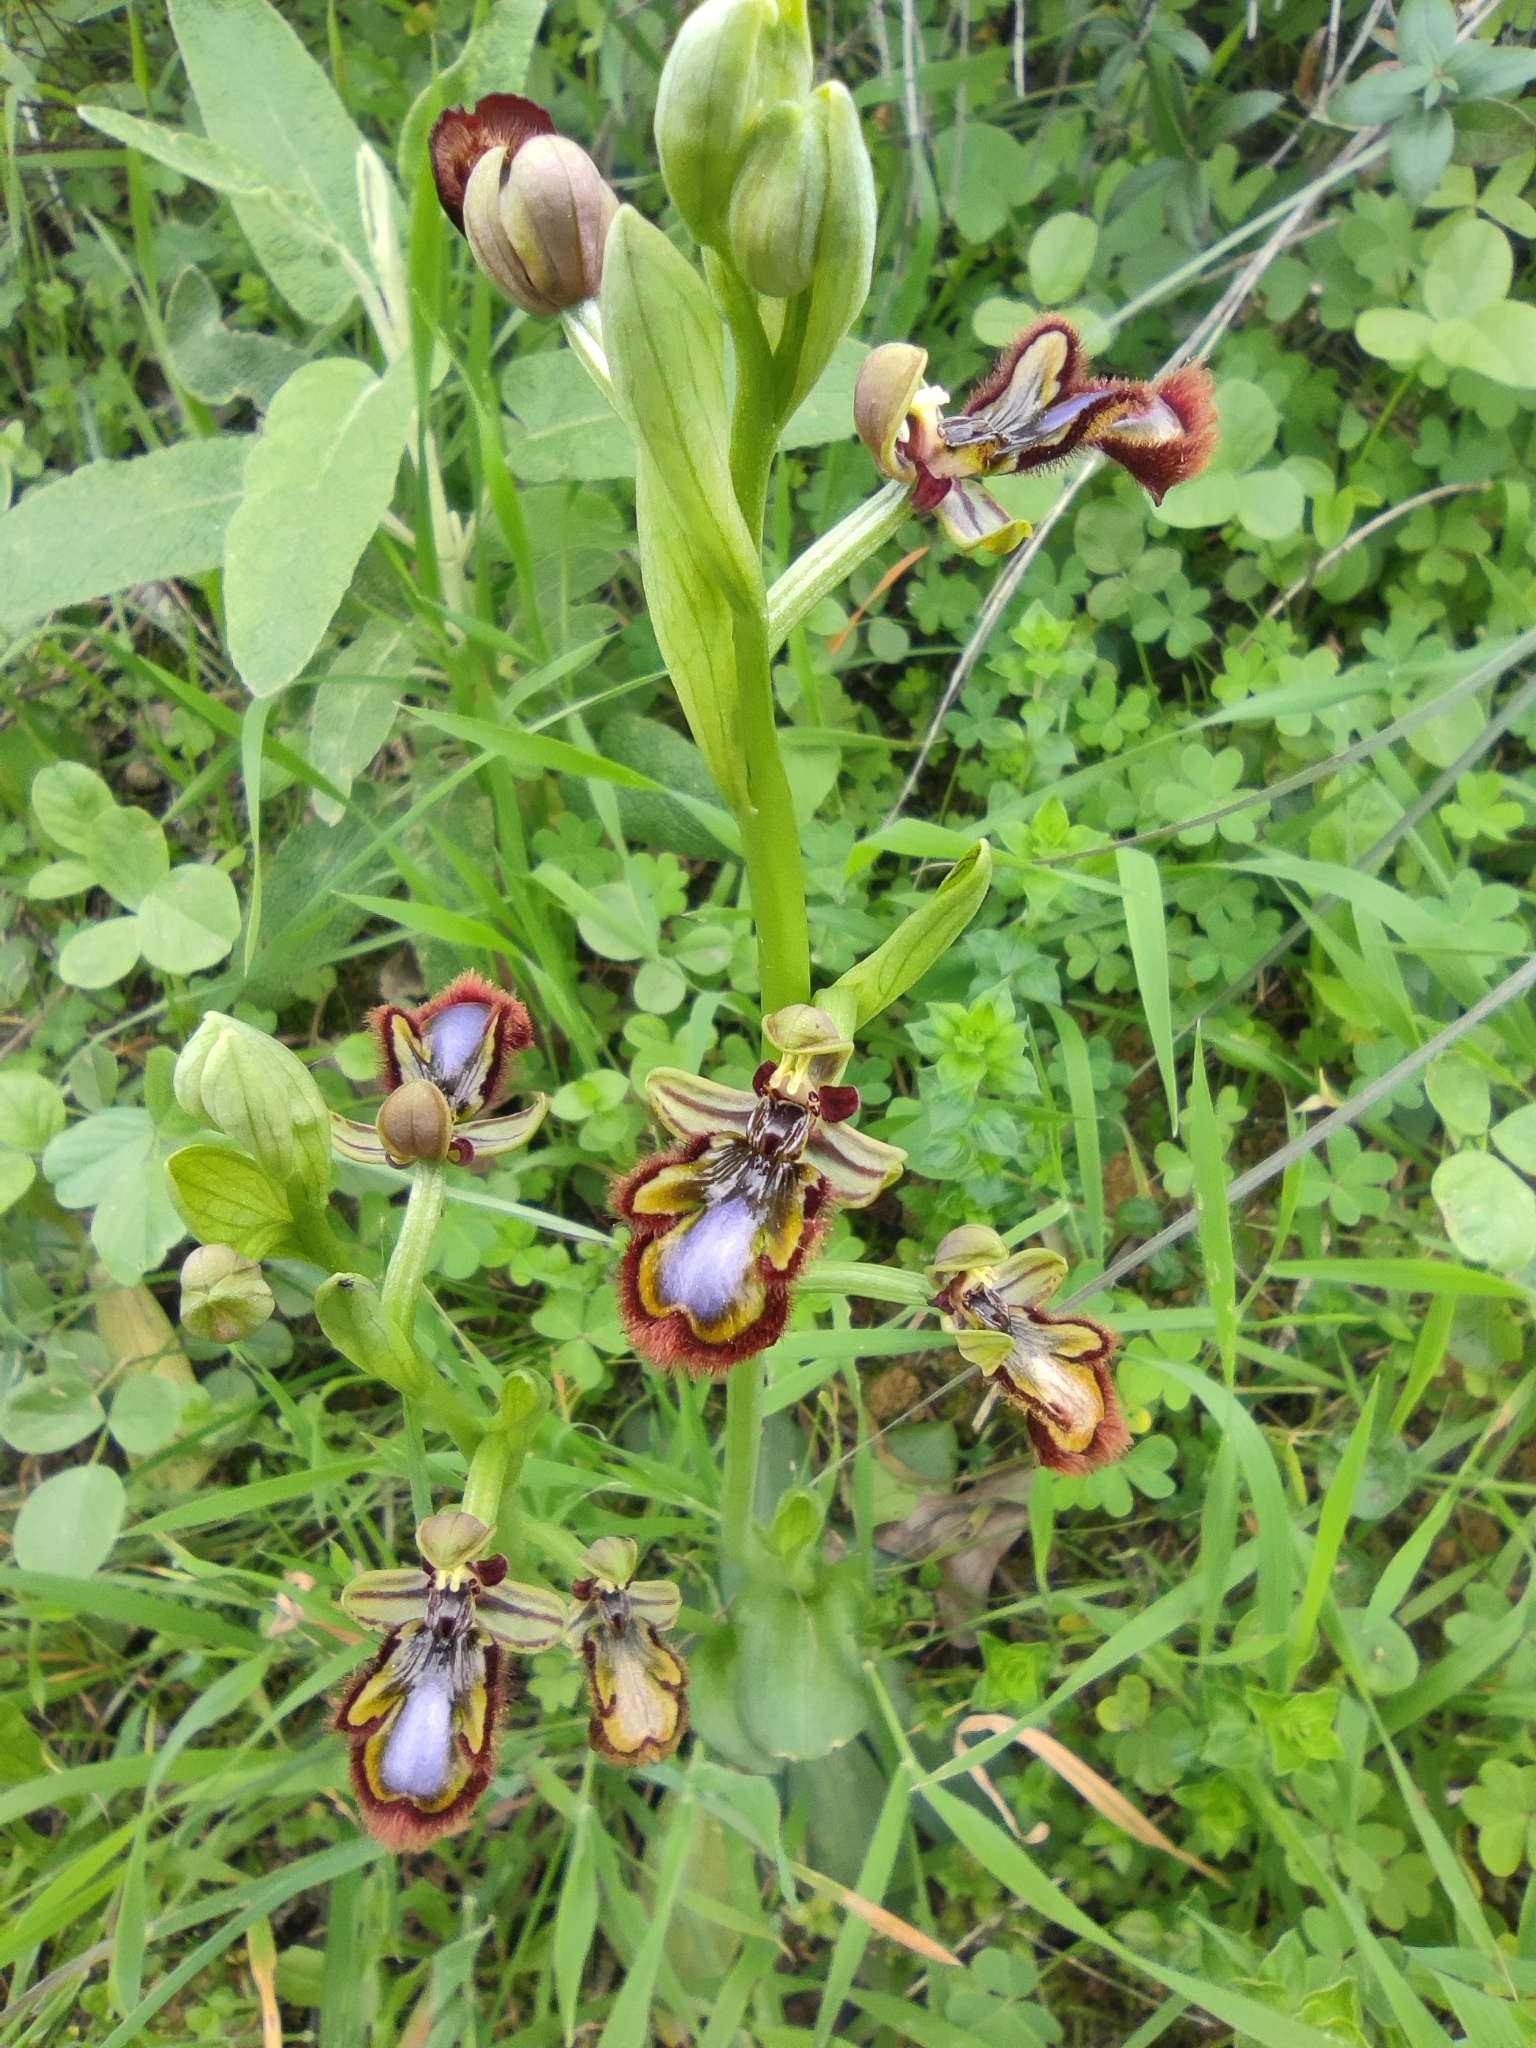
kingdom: Plantae
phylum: Tracheophyta
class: Liliopsida
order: Asparagales
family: Orchidaceae
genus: Ophrys
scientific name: Ophrys speculum
